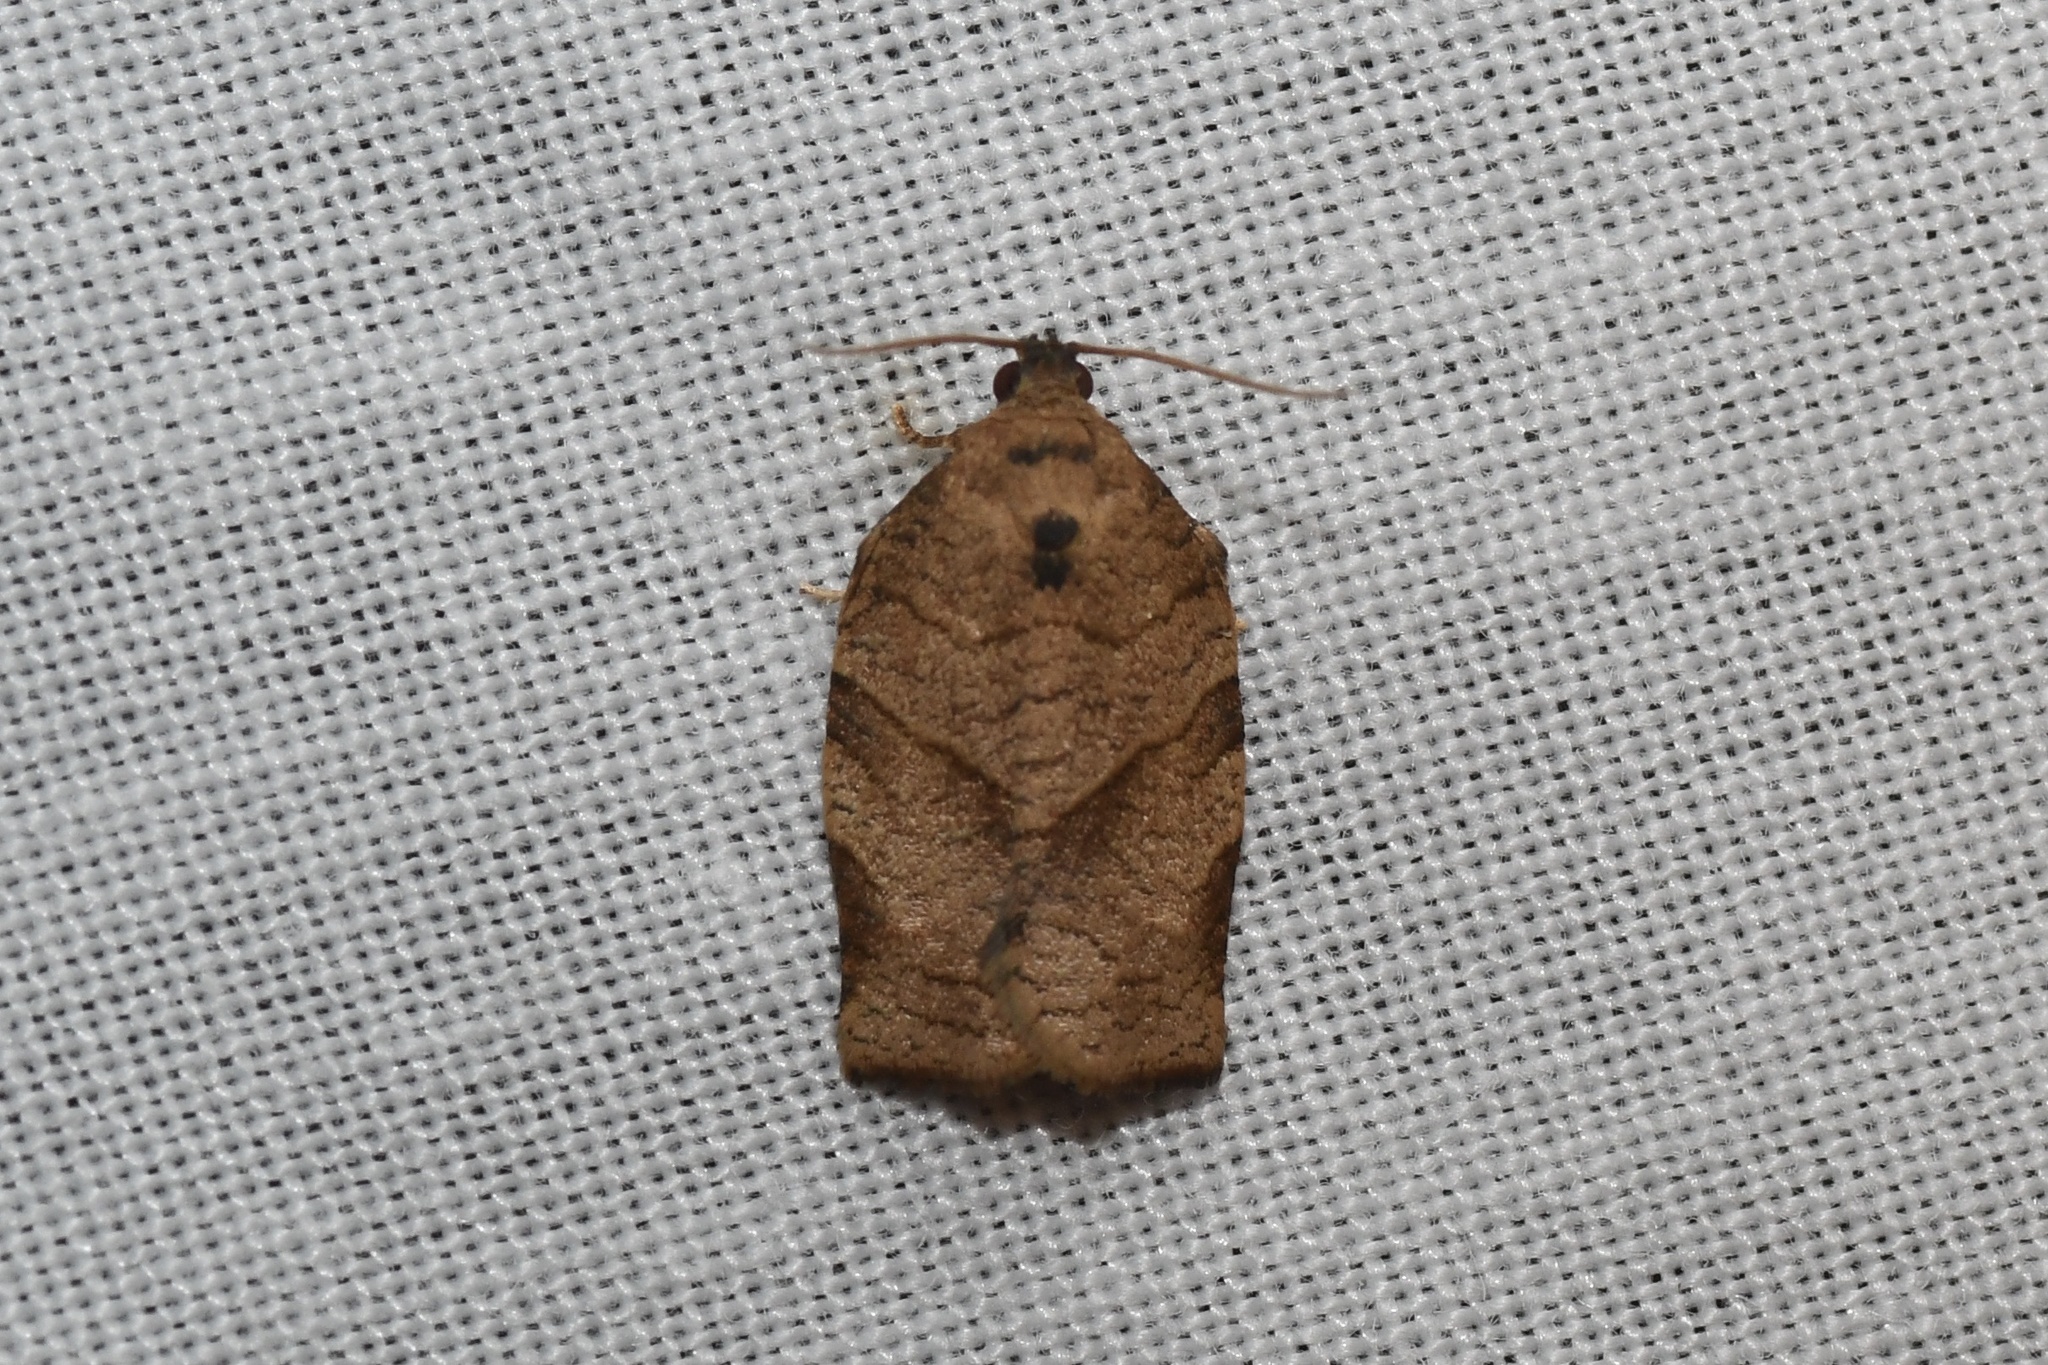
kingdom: Animalia
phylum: Arthropoda
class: Insecta
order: Lepidoptera
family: Tortricidae
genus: Choristoneura
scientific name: Choristoneura rosaceana
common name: Oblique-banded leafroller moth
